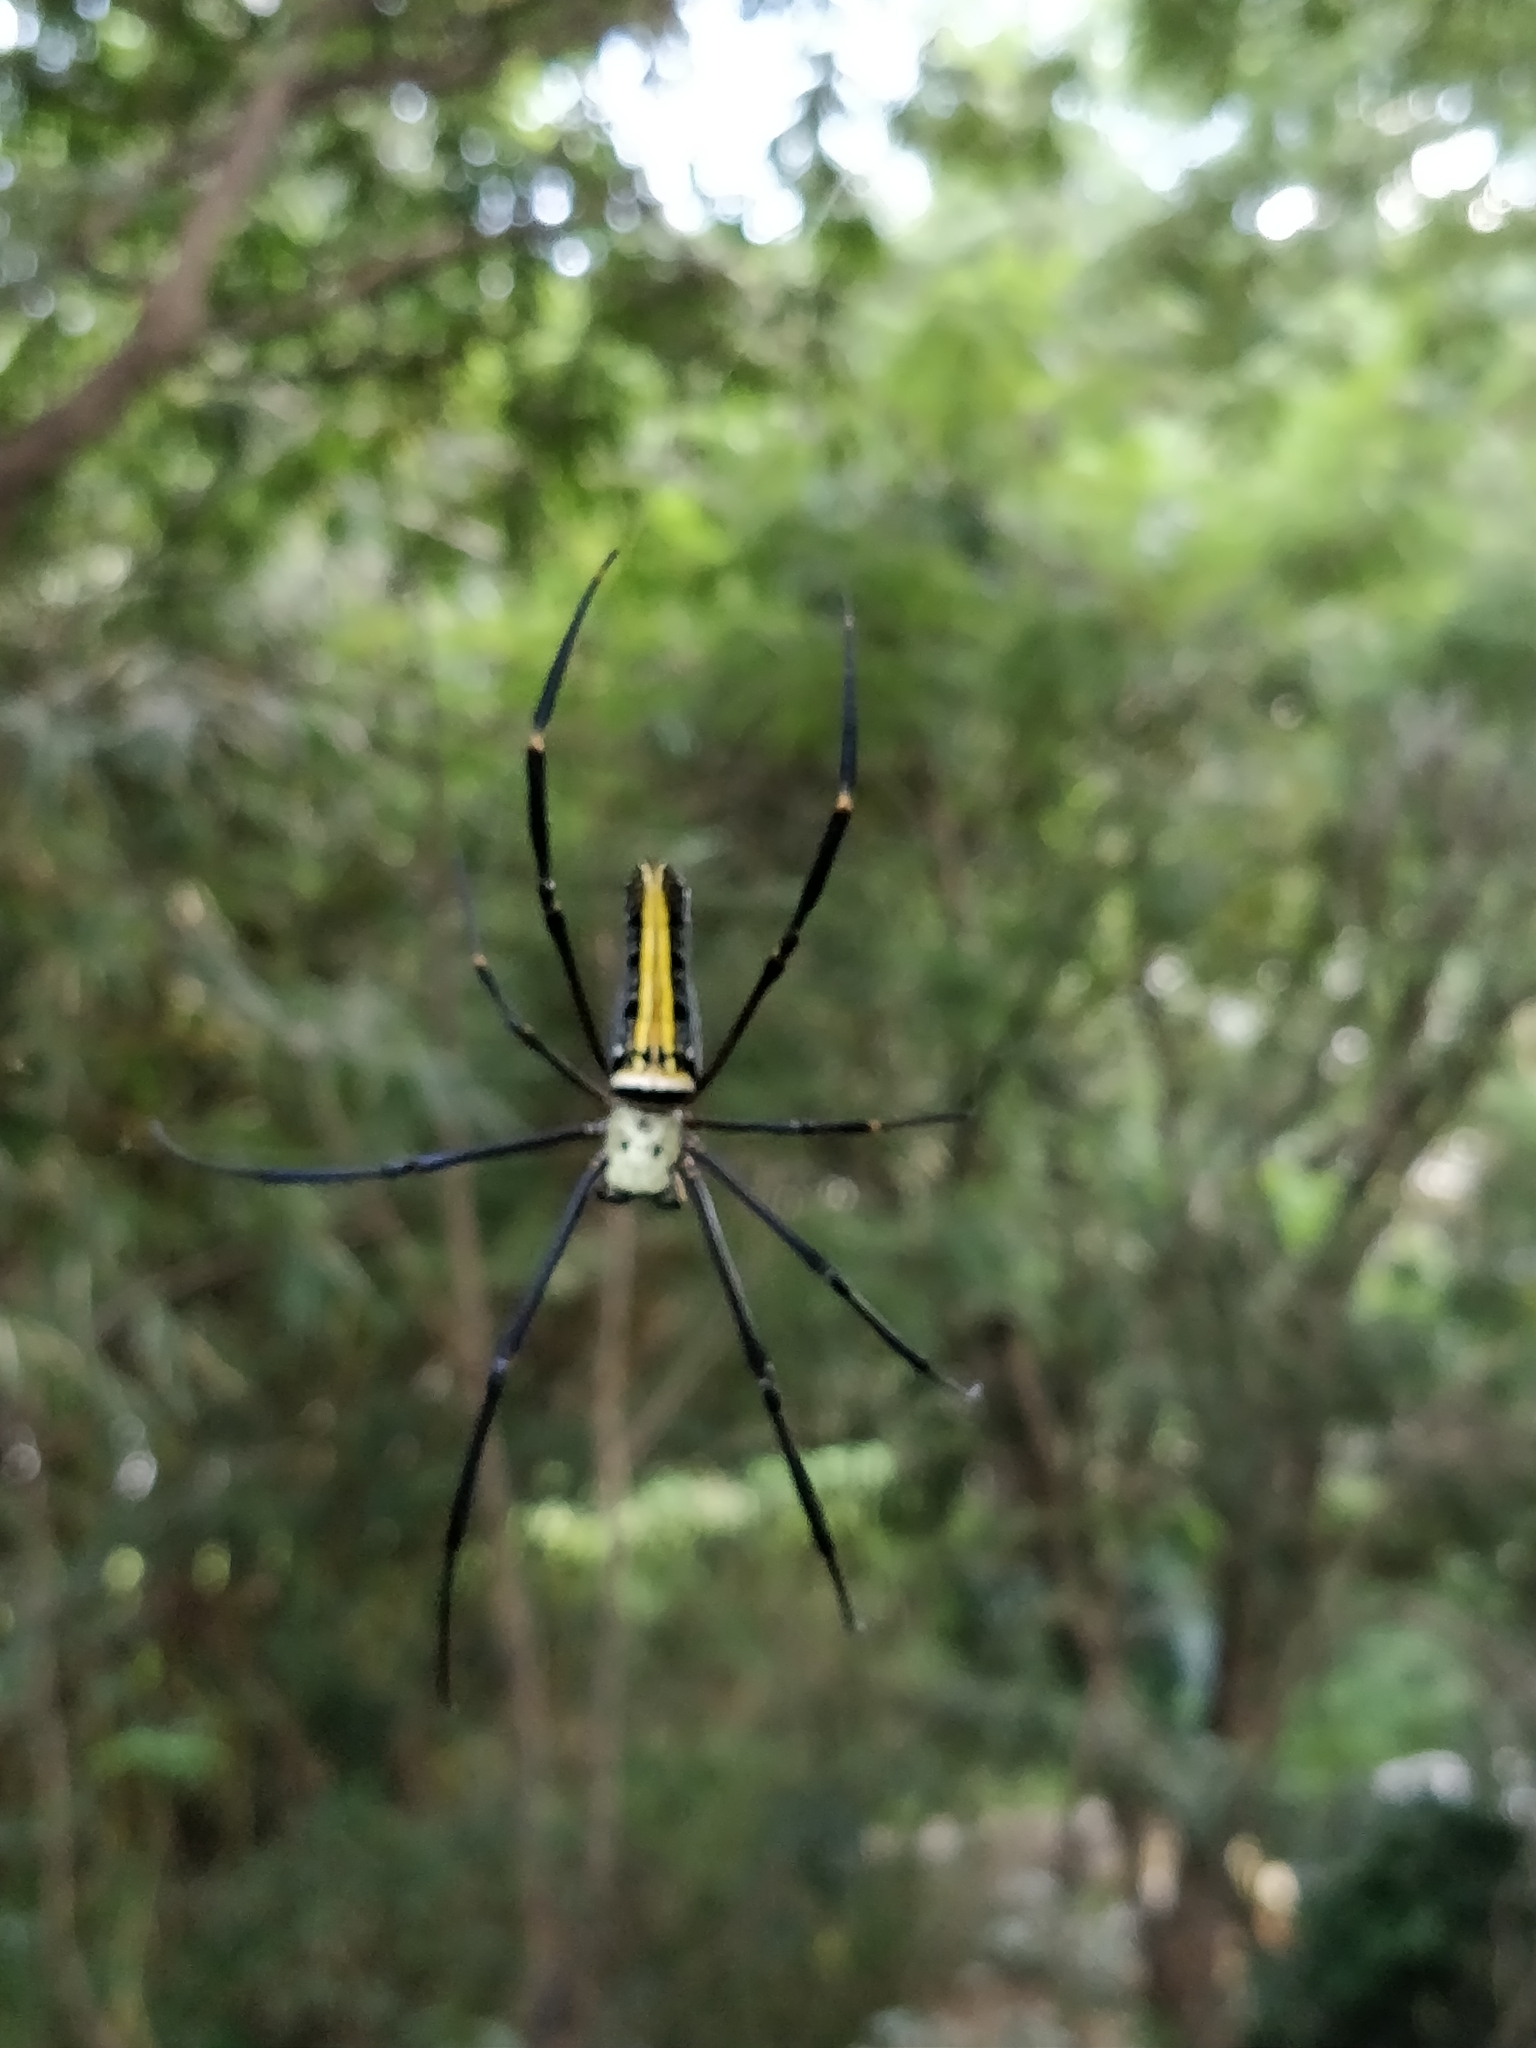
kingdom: Animalia
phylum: Arthropoda
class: Arachnida
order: Araneae
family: Araneidae
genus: Nephila
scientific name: Nephila pilipes
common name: Giant golden orb weaver
